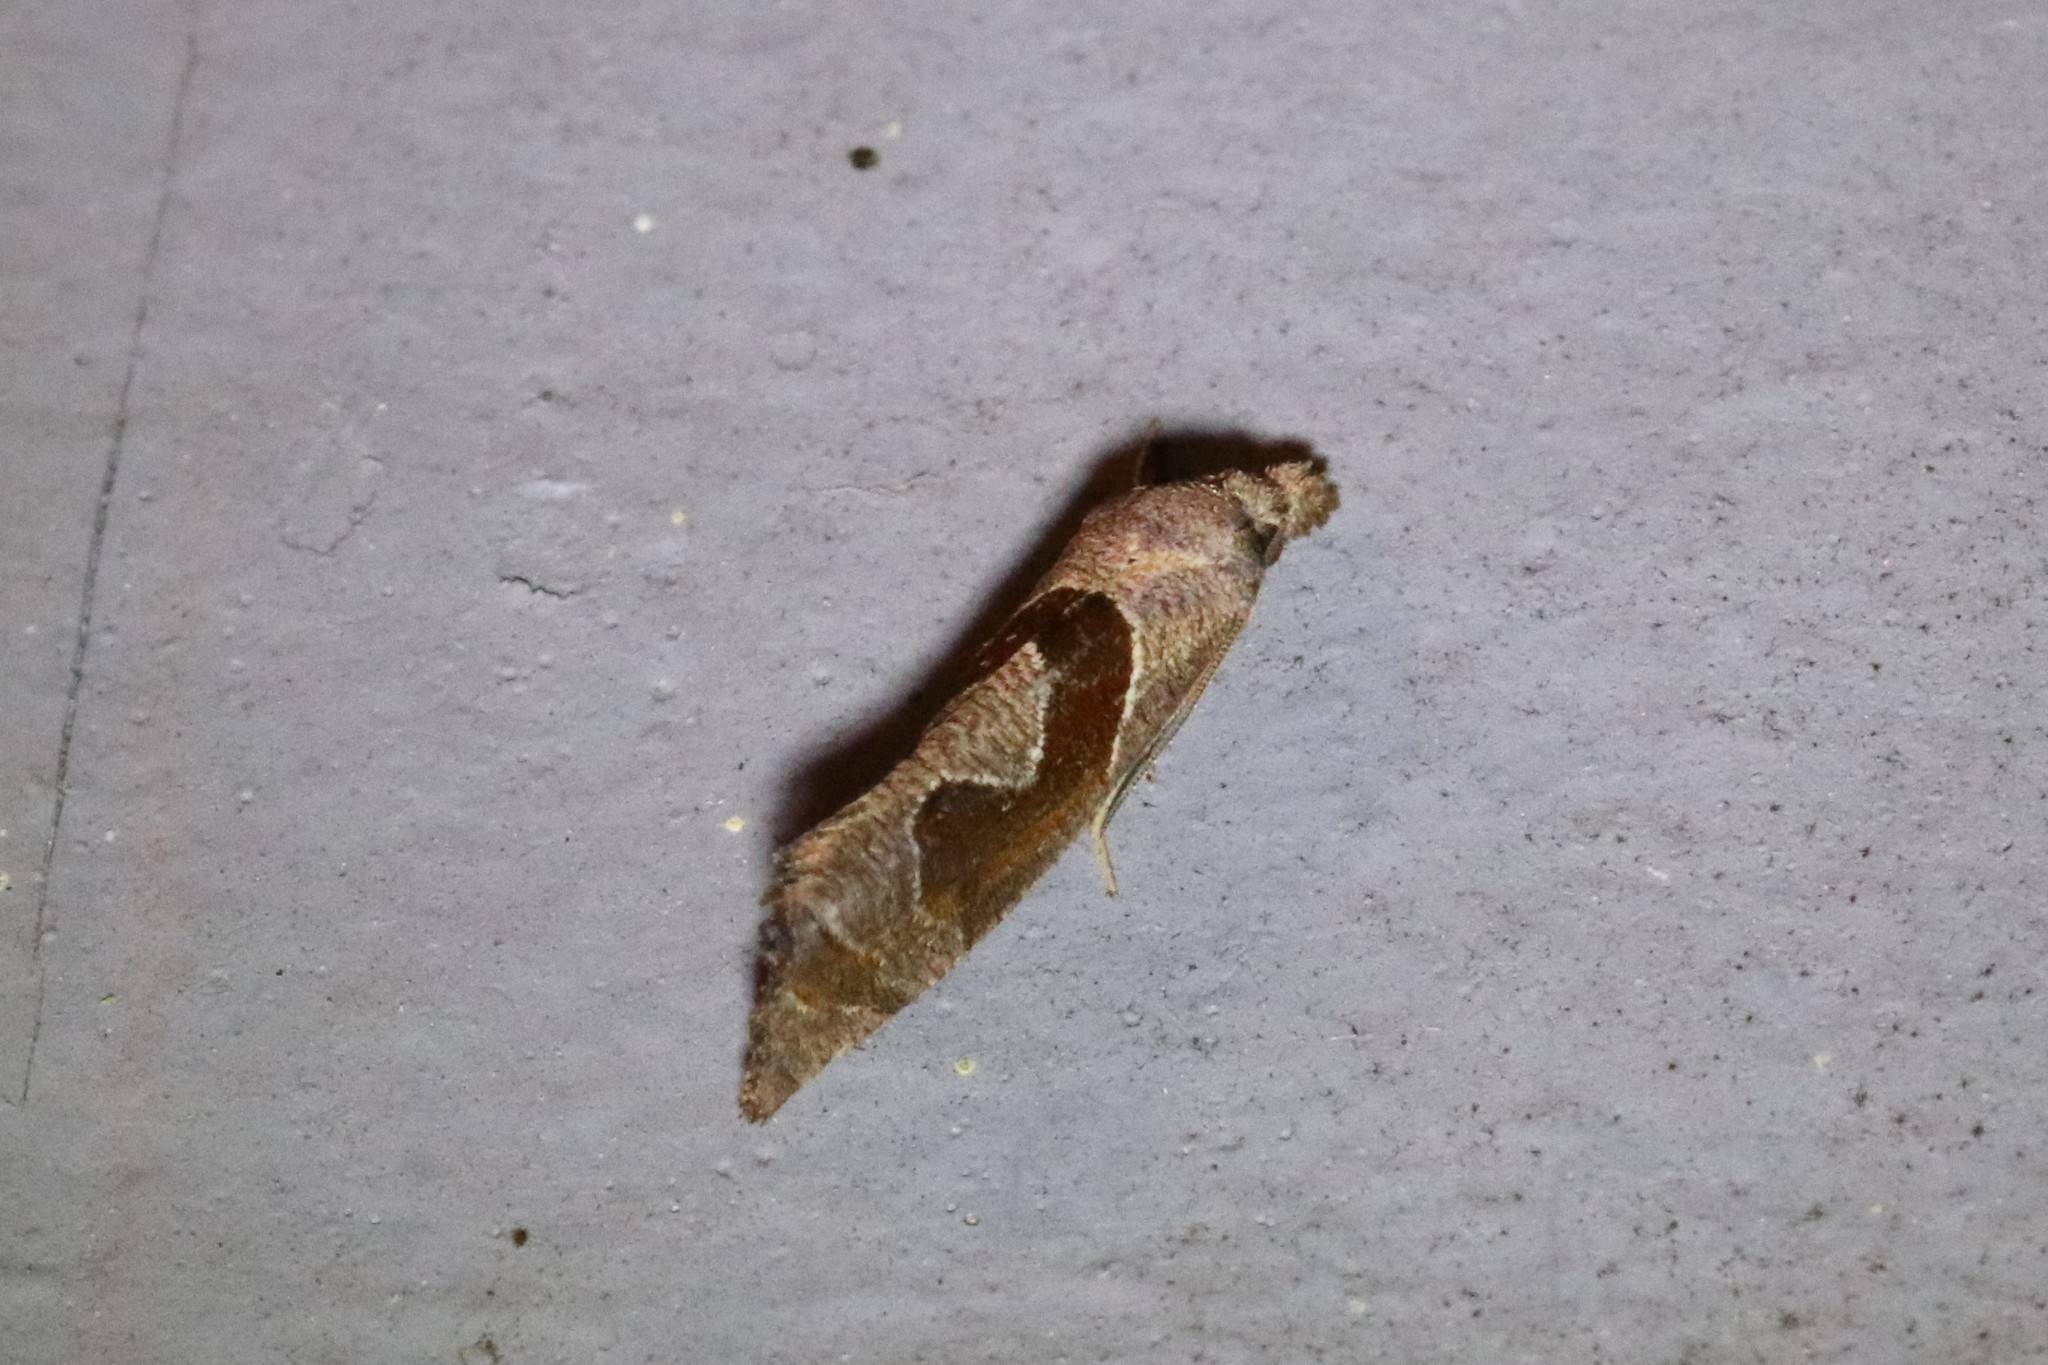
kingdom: Animalia
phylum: Arthropoda
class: Insecta
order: Lepidoptera
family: Tortricidae
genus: Pelochrista
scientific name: Pelochrista similiana
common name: Similar eucosma
